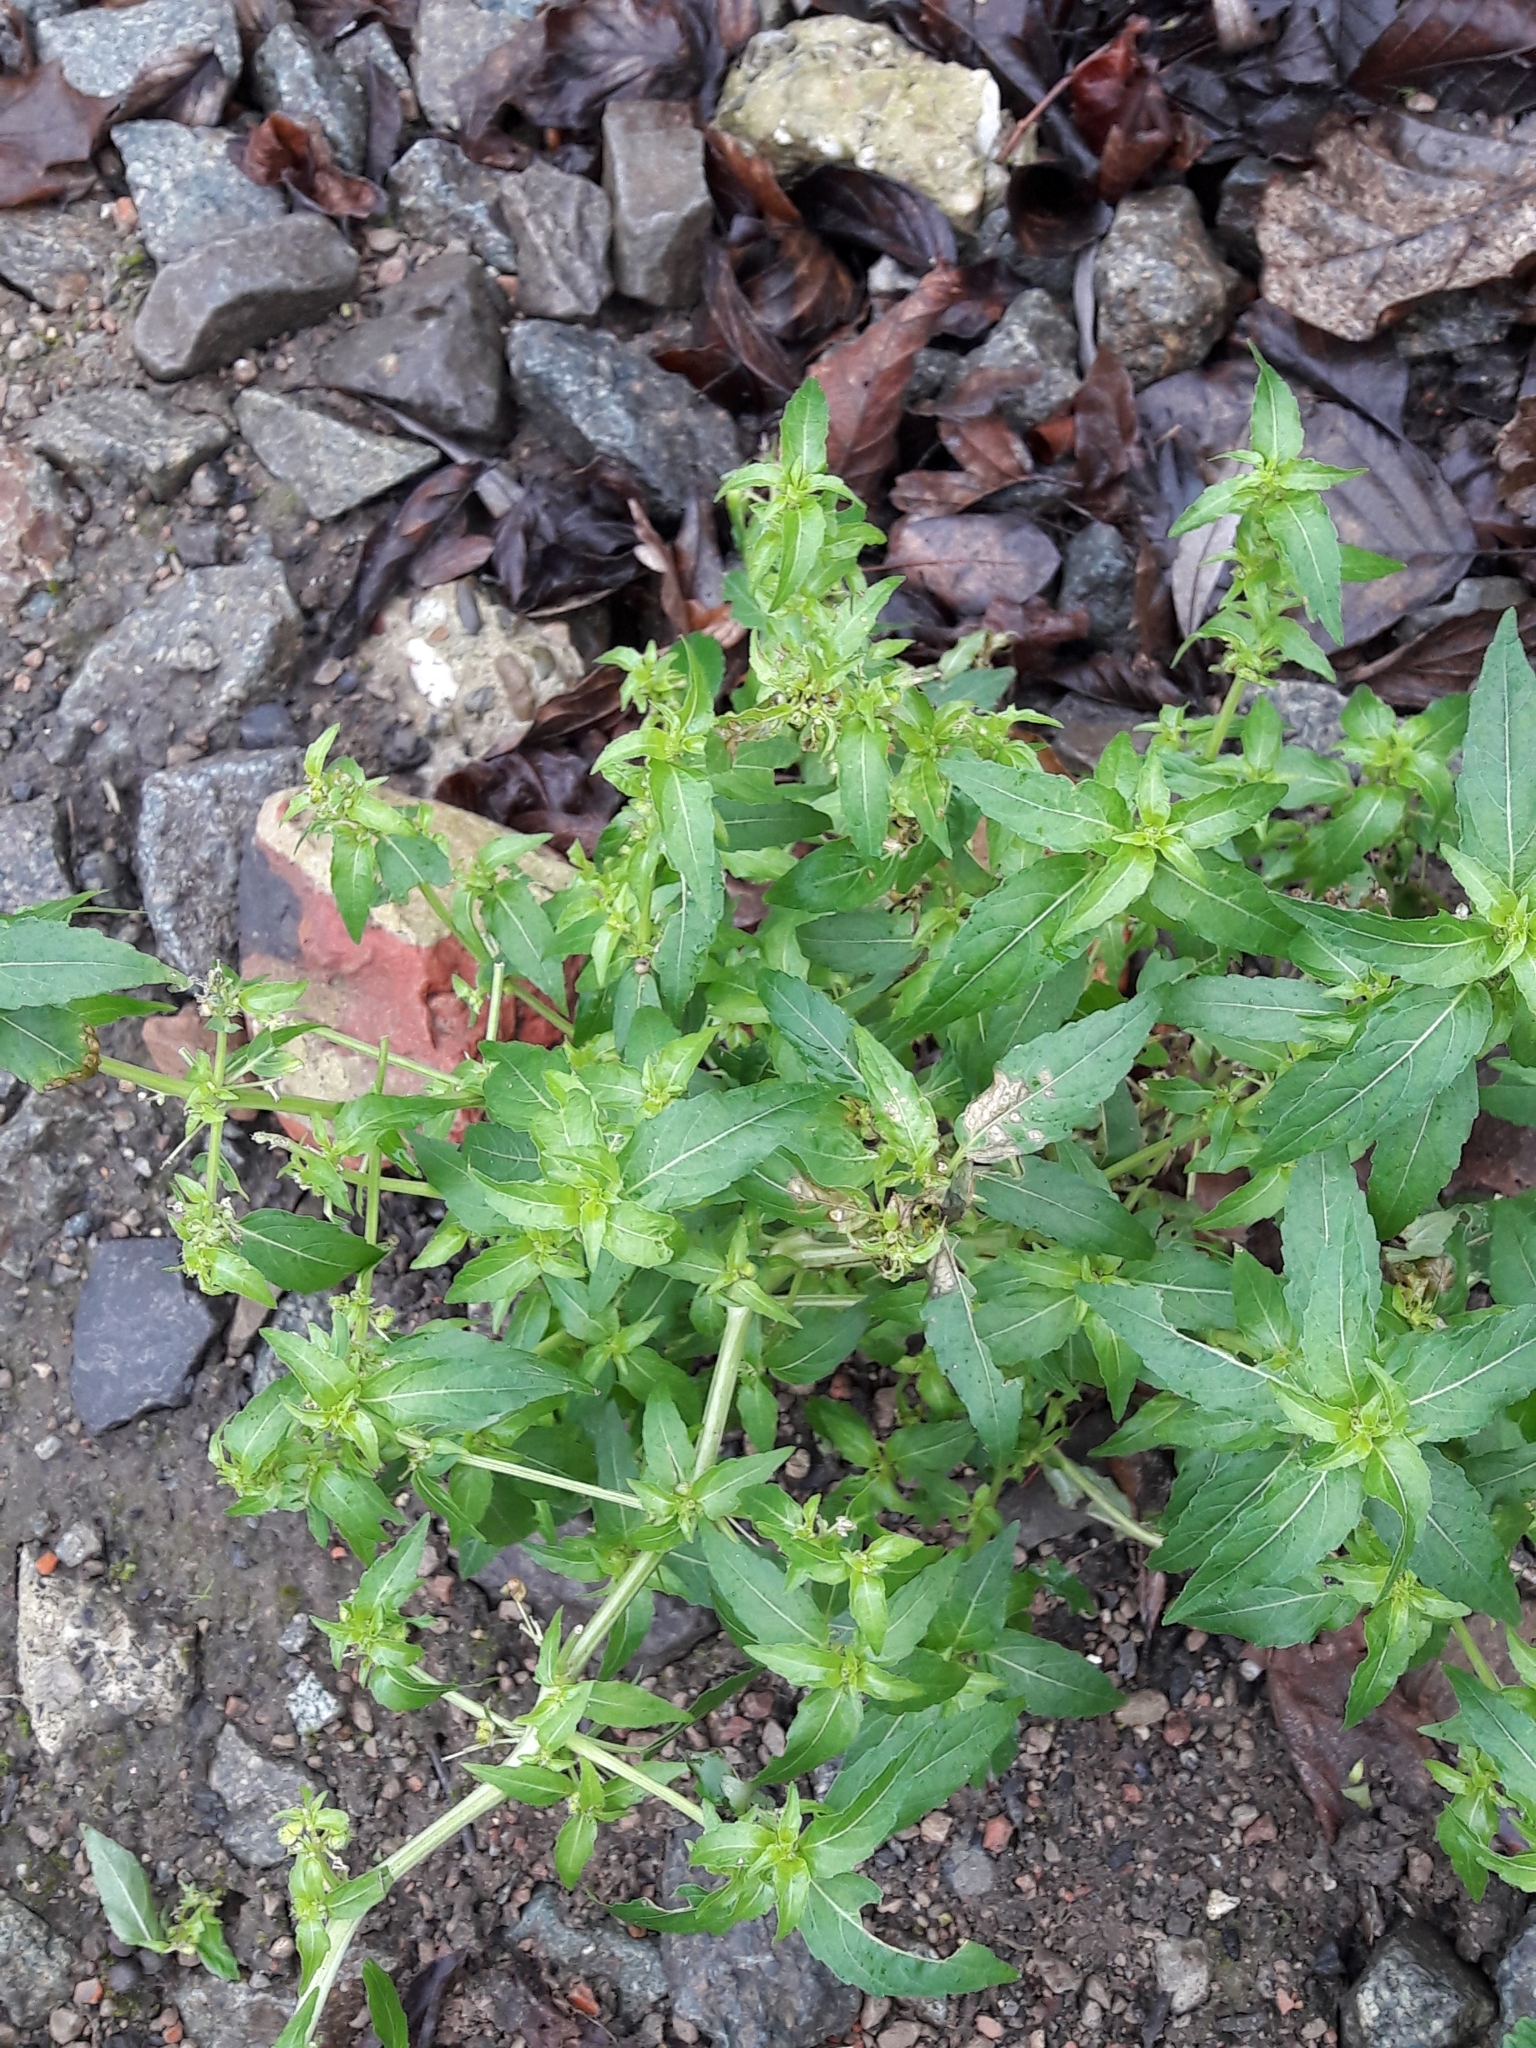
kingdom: Plantae
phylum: Tracheophyta
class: Magnoliopsida
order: Malpighiales
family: Euphorbiaceae
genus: Mercurialis
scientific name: Mercurialis annua
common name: Annual mercury
